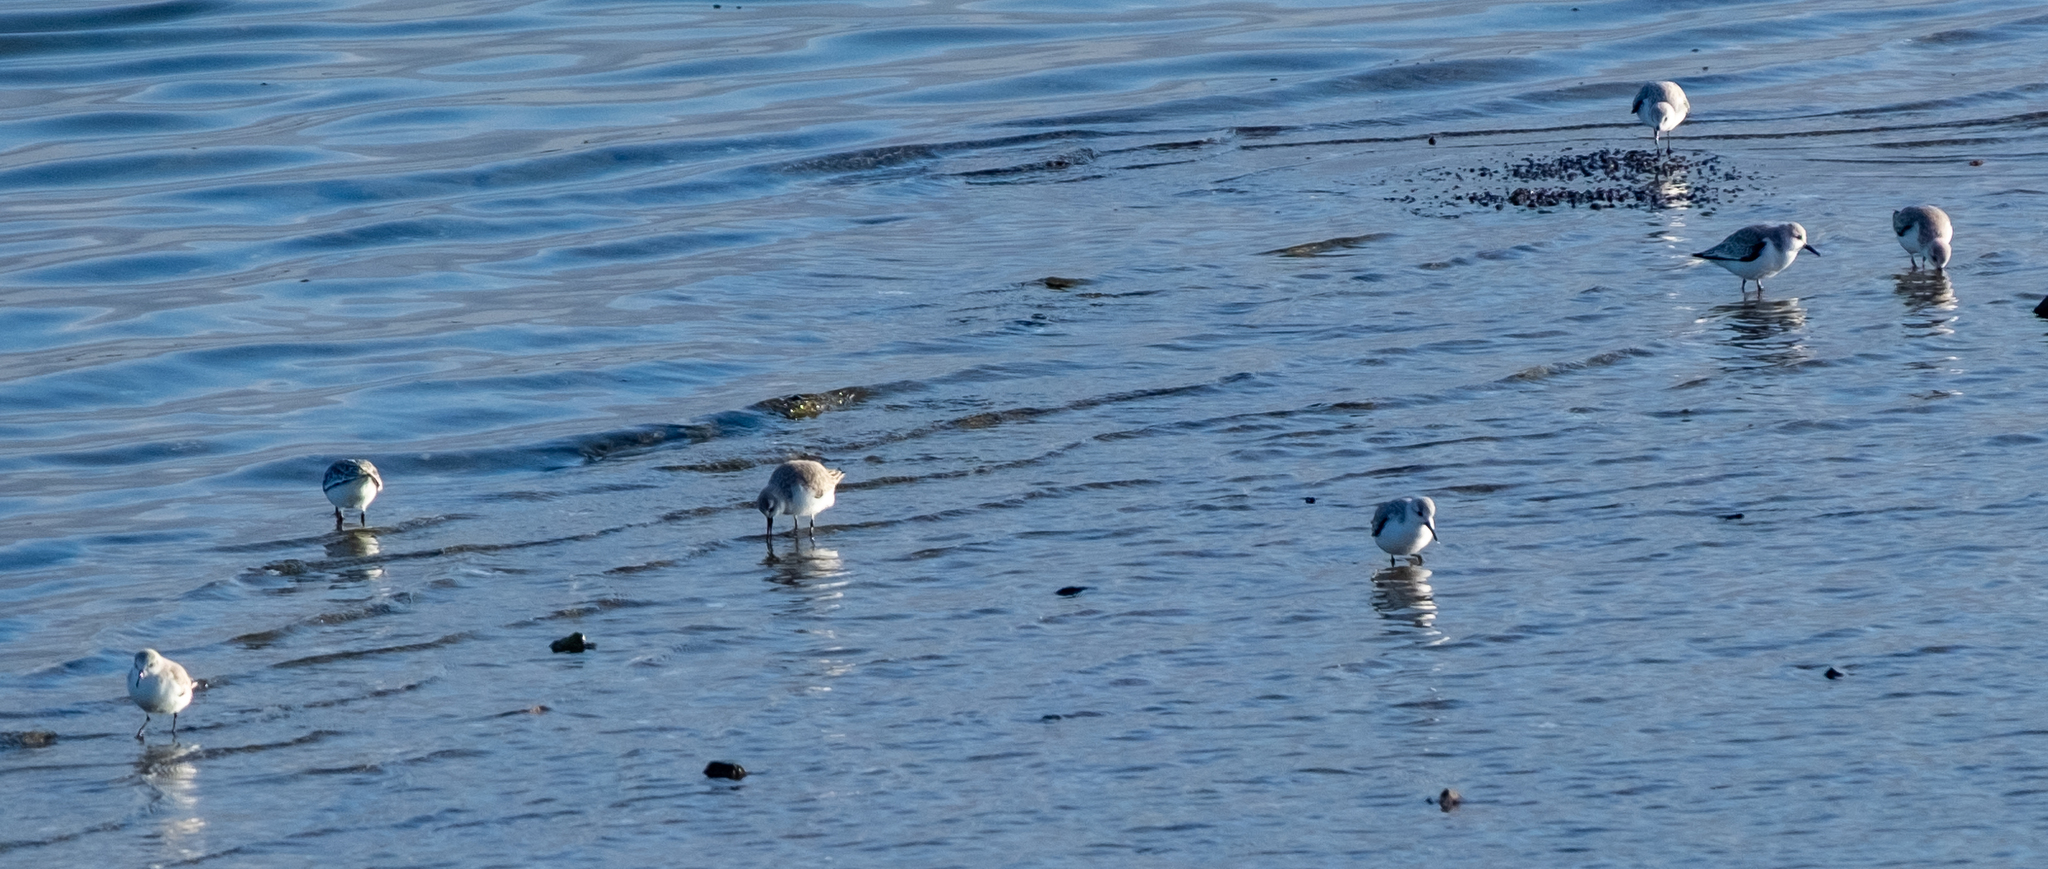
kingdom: Animalia
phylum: Chordata
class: Aves
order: Charadriiformes
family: Scolopacidae
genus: Calidris
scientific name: Calidris alba
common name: Sanderling
